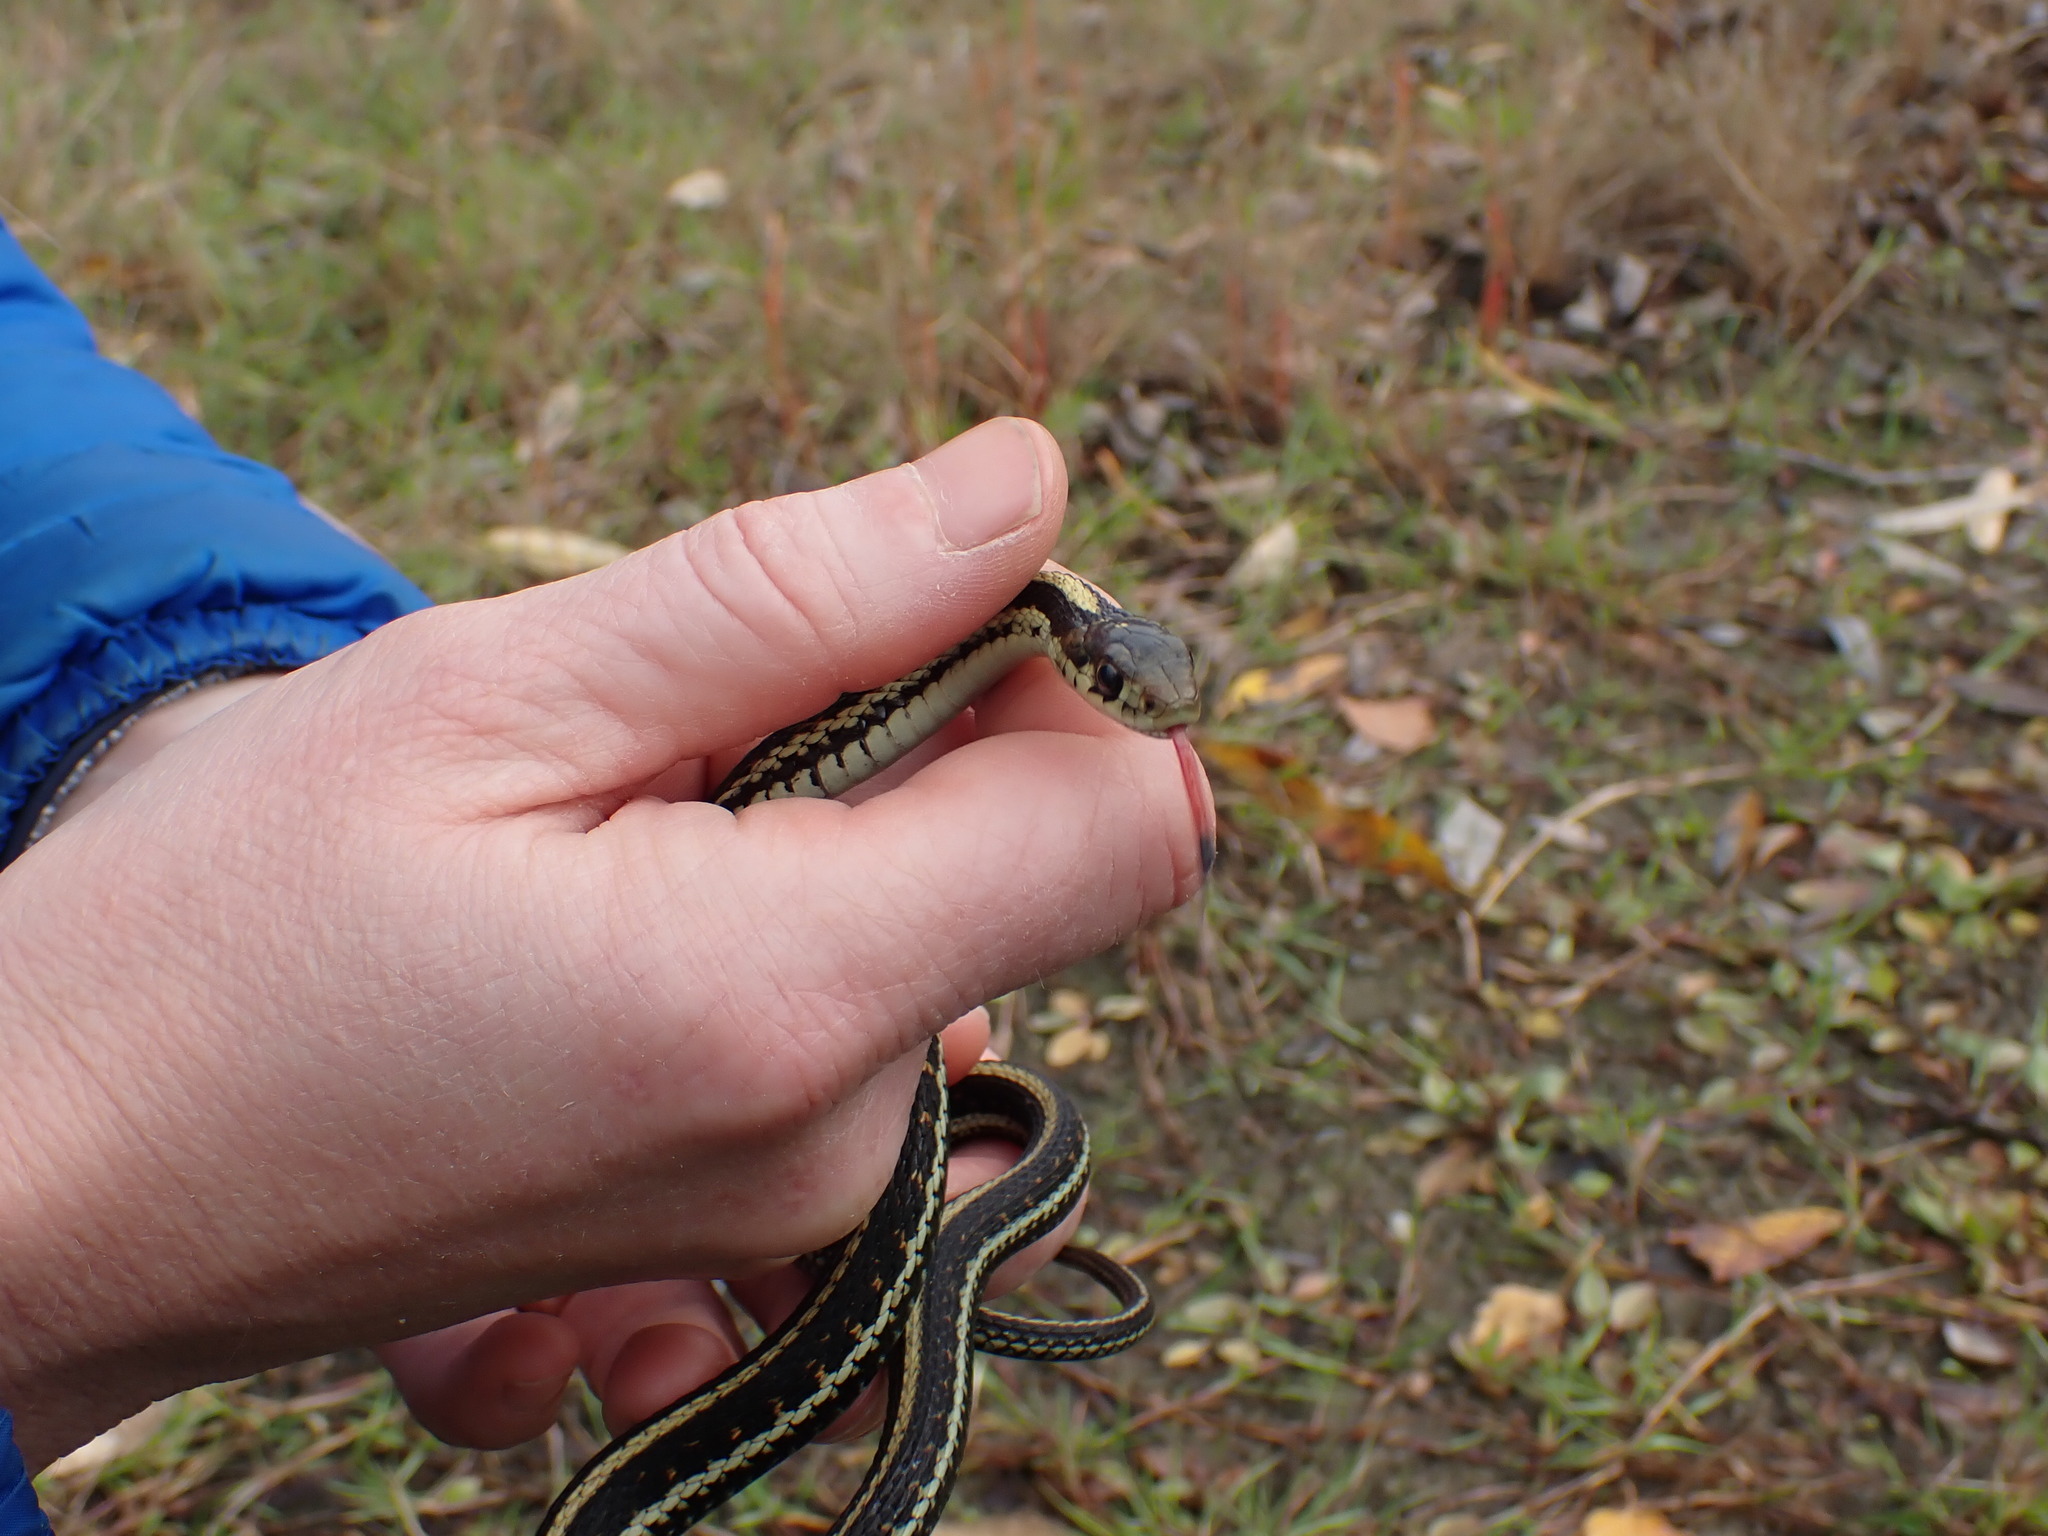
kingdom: Animalia
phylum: Chordata
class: Squamata
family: Colubridae
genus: Thamnophis
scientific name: Thamnophis sirtalis
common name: Common garter snake
